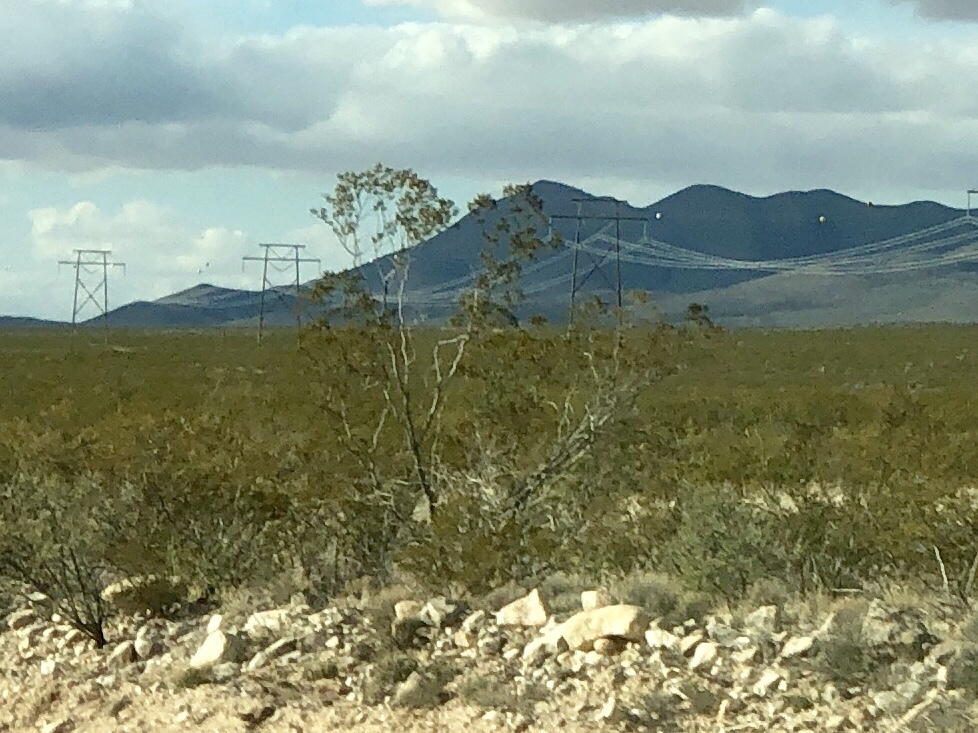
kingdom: Plantae
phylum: Tracheophyta
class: Magnoliopsida
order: Zygophyllales
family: Zygophyllaceae
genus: Larrea
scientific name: Larrea tridentata
